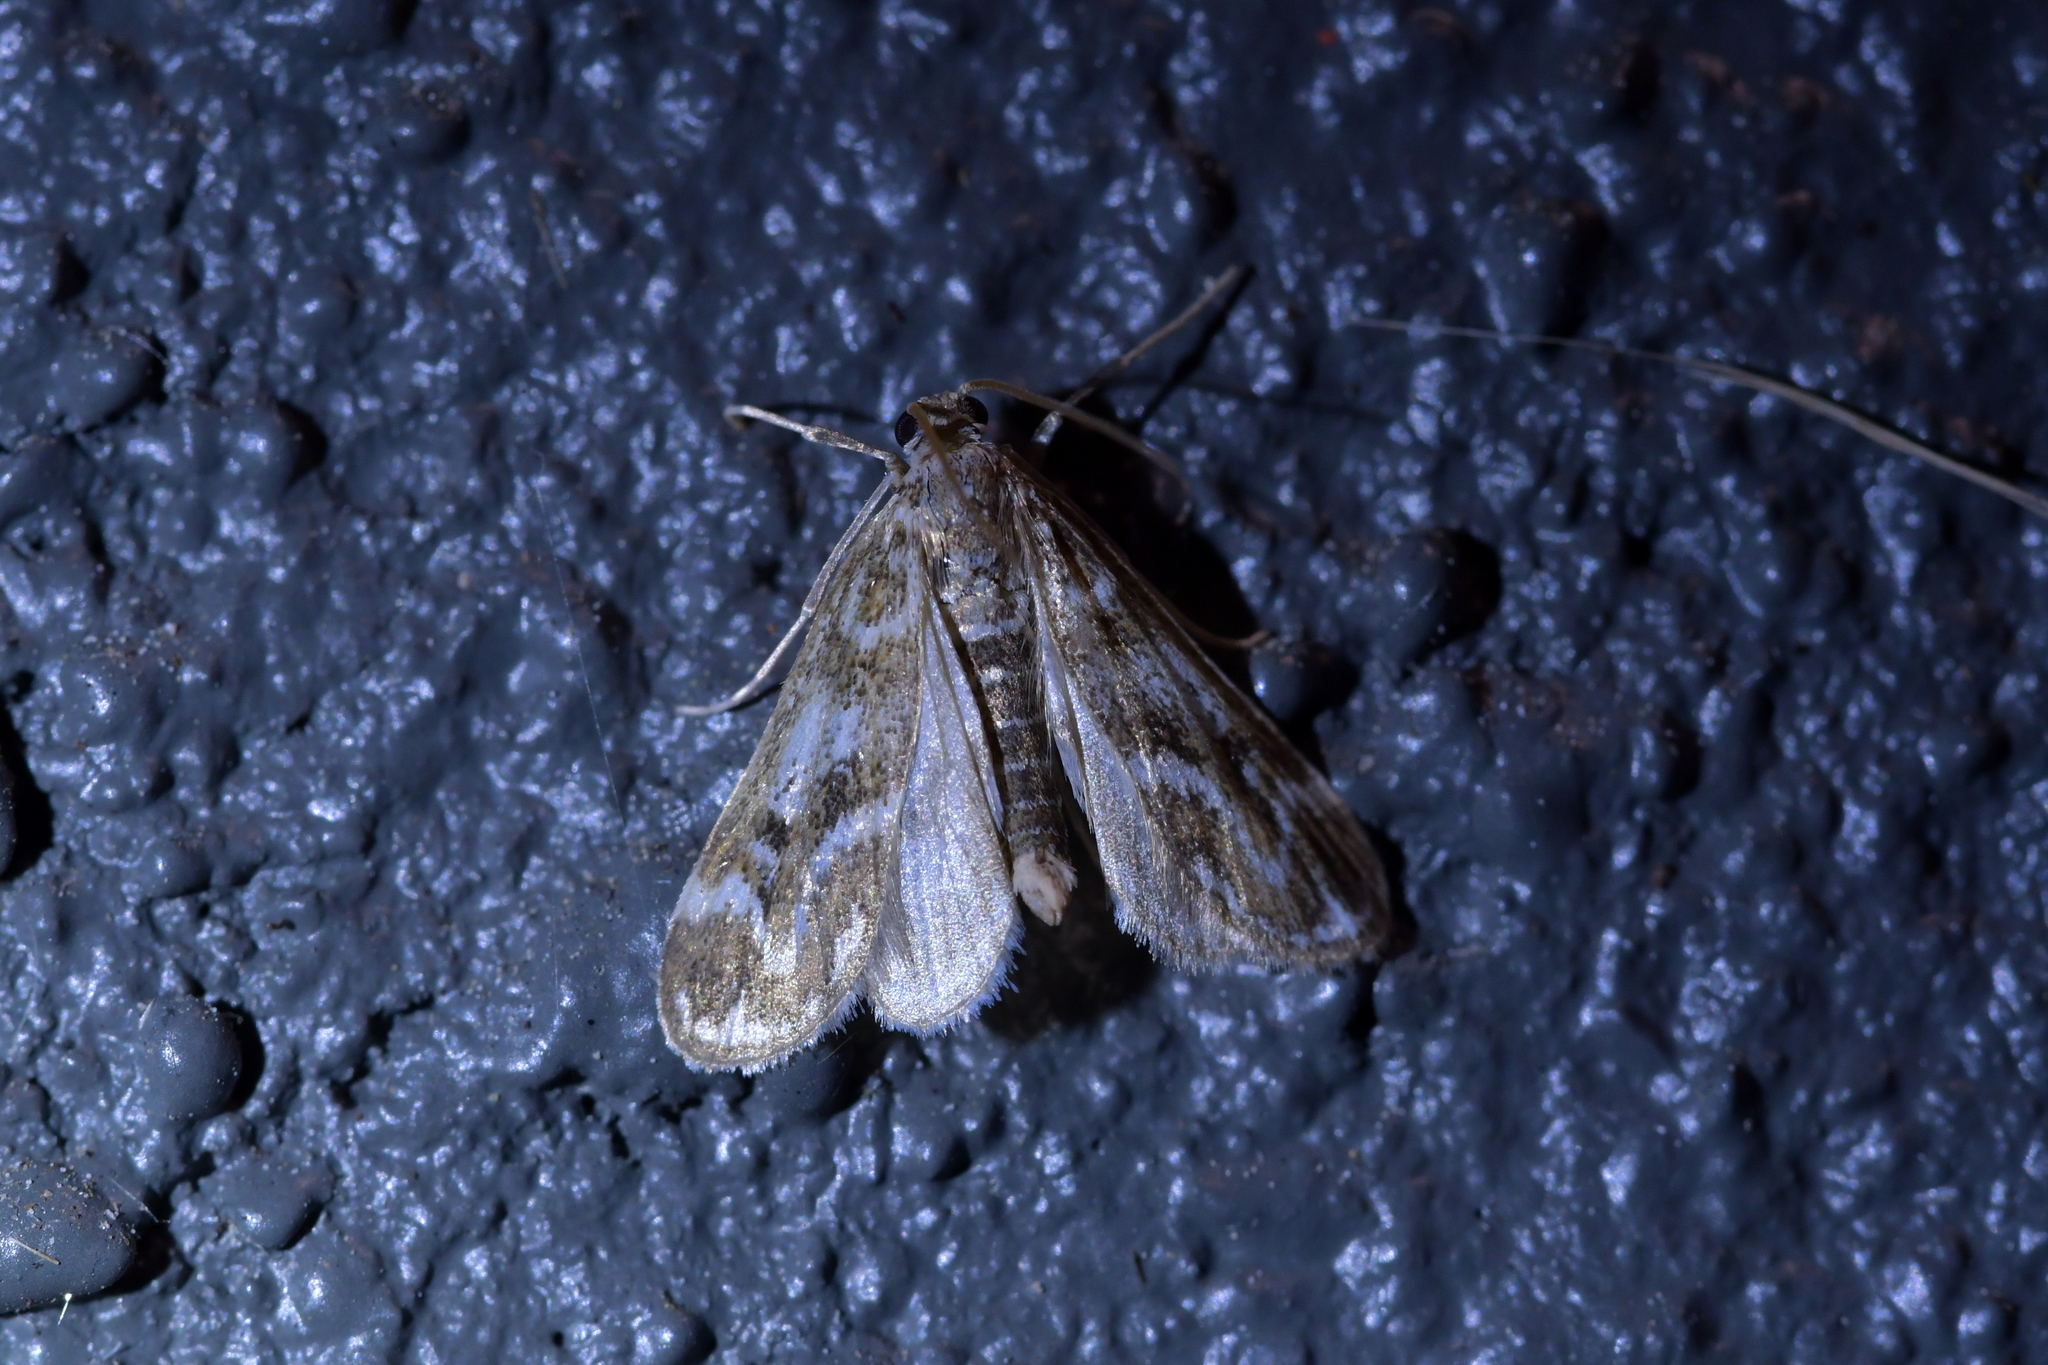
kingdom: Animalia
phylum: Arthropoda
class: Insecta
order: Lepidoptera
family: Crambidae
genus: Hygraula
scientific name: Hygraula nitens
